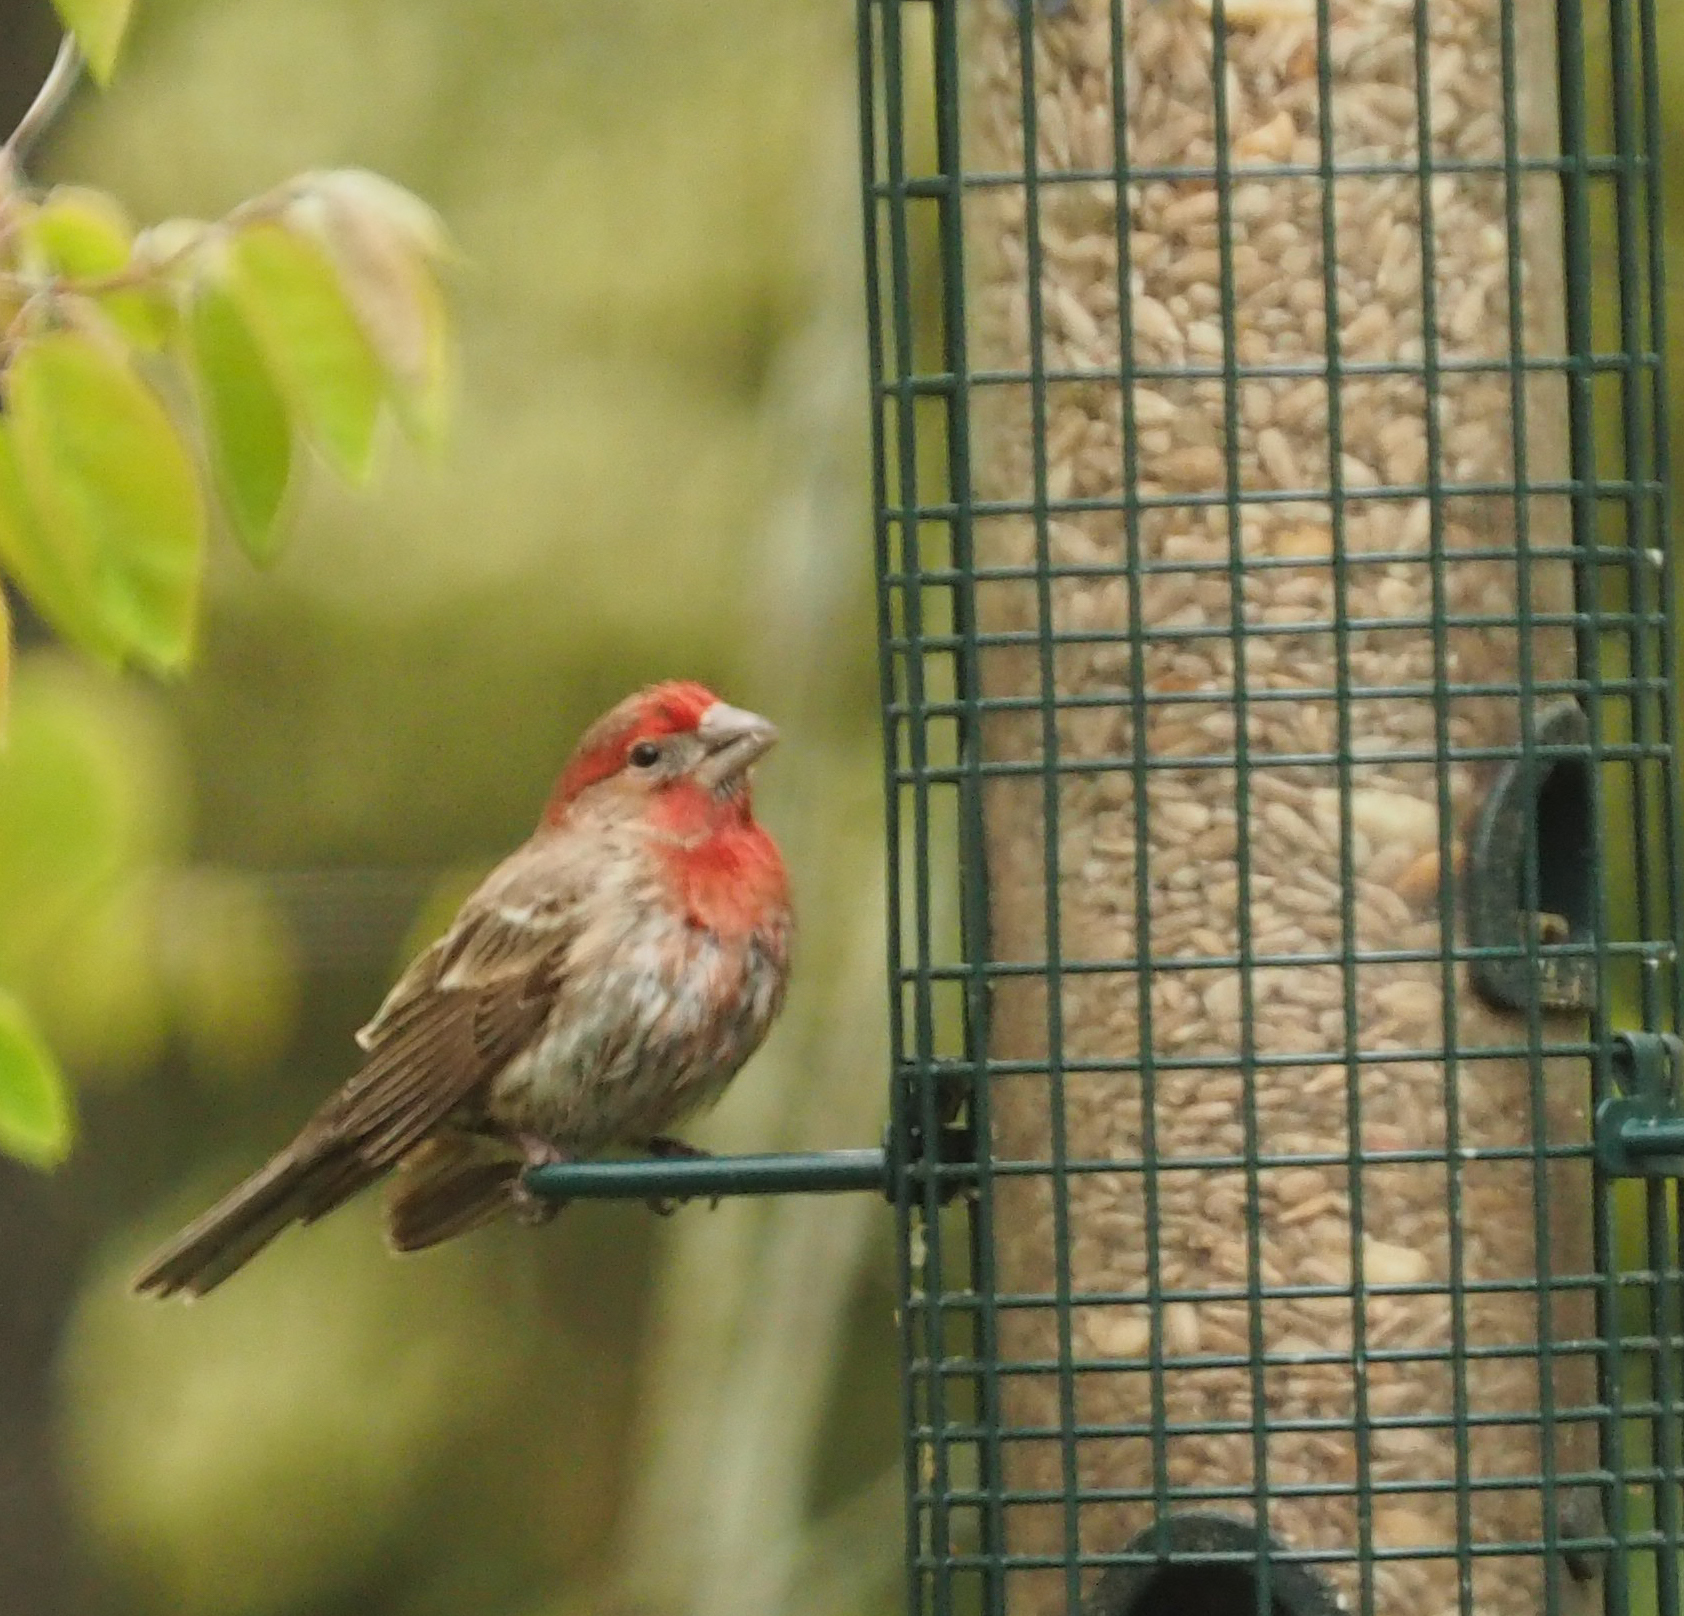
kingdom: Animalia
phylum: Chordata
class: Aves
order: Passeriformes
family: Fringillidae
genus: Haemorhous
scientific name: Haemorhous mexicanus
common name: House finch
